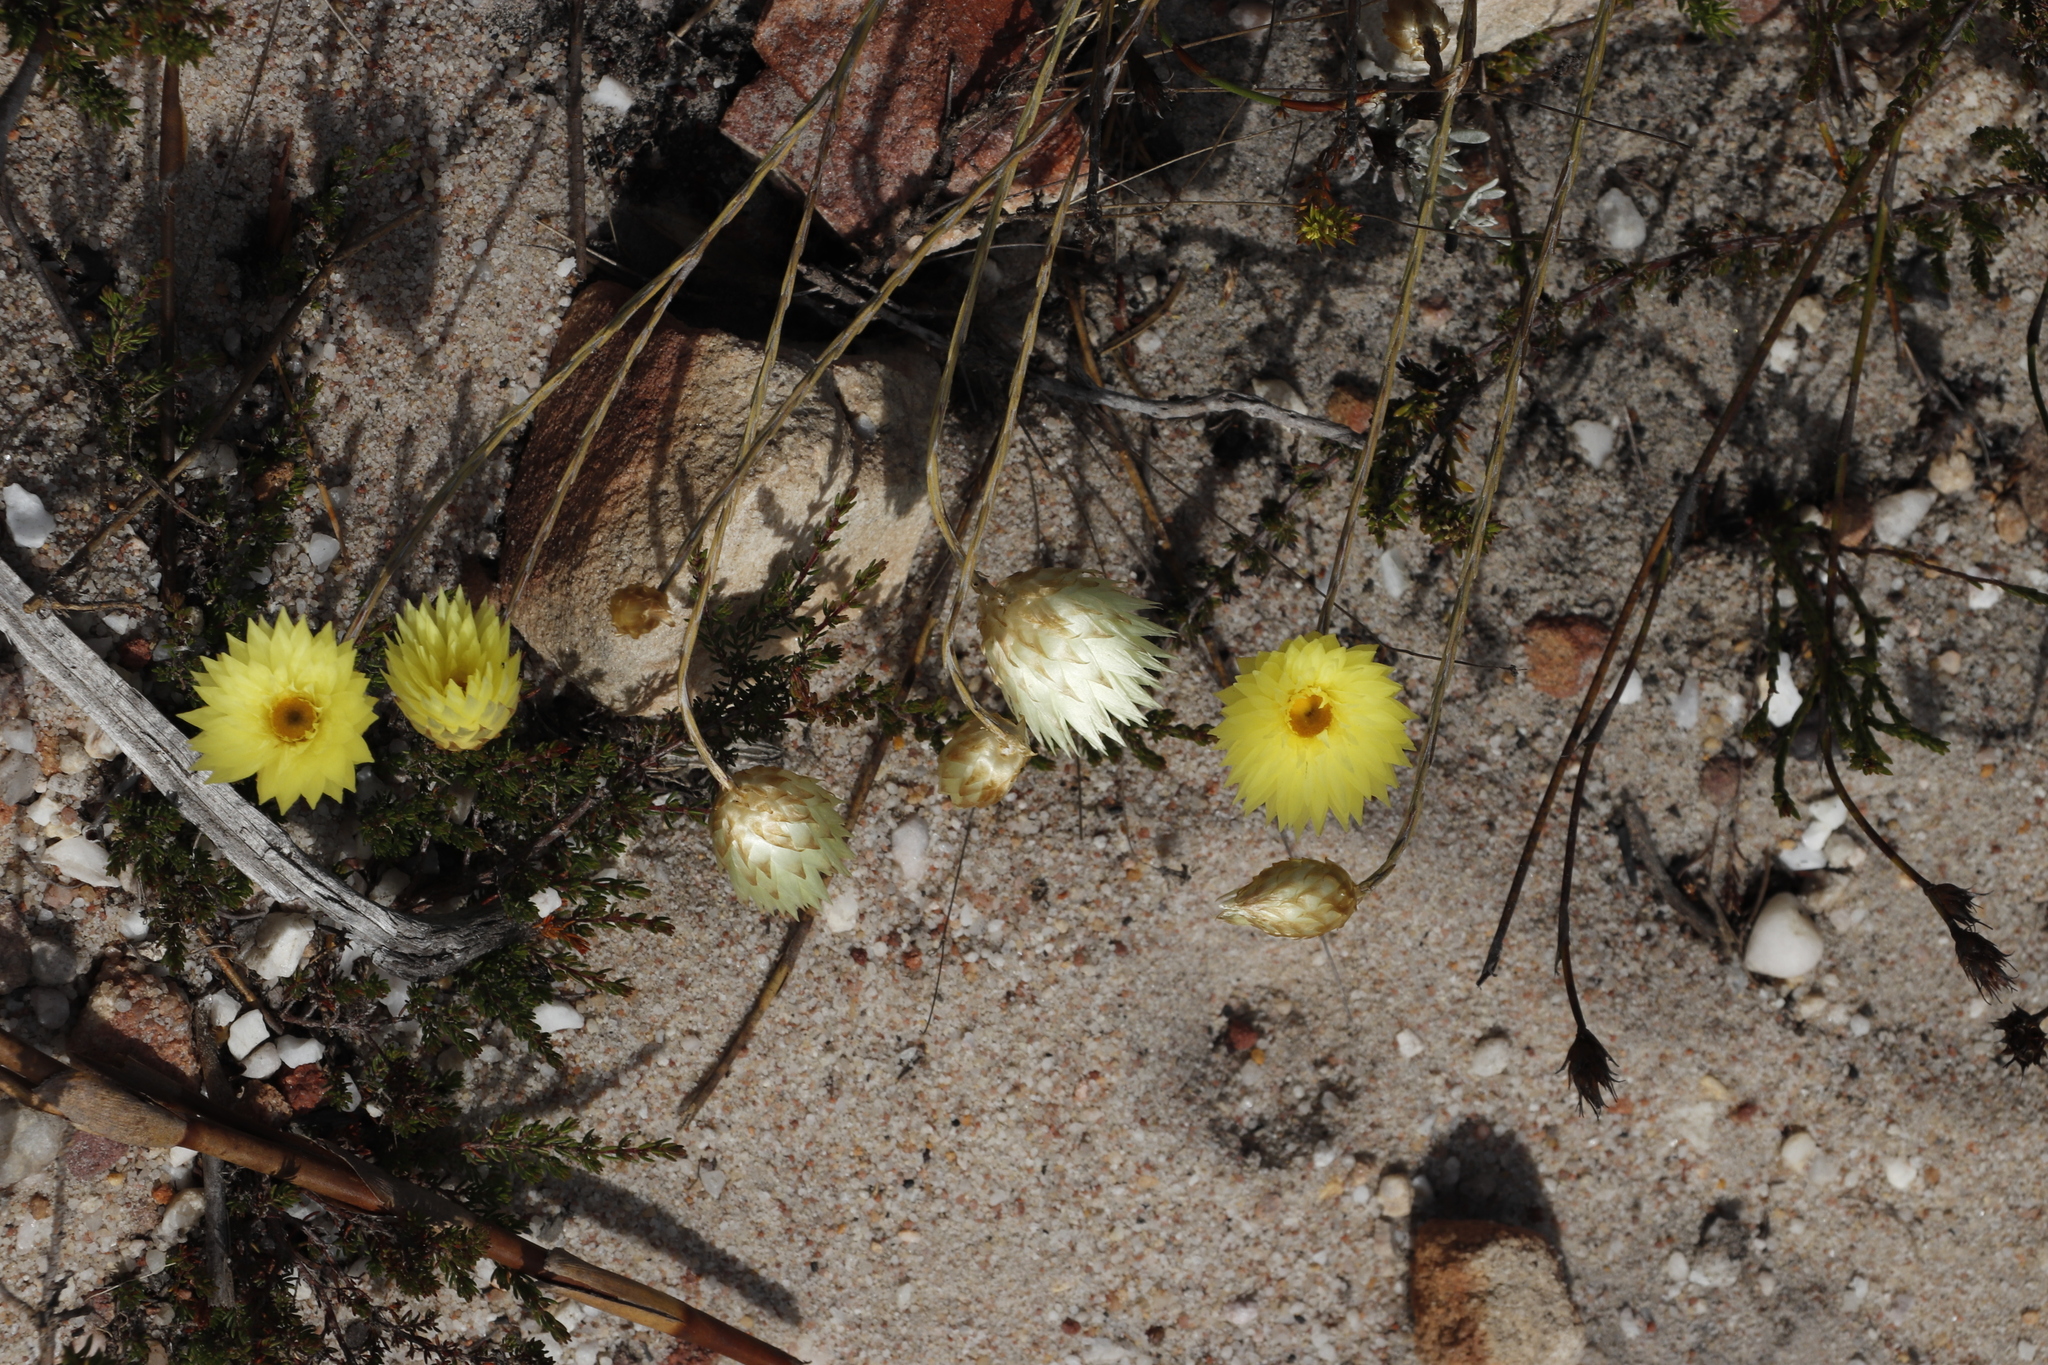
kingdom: Plantae
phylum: Tracheophyta
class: Magnoliopsida
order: Asterales
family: Asteraceae
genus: Edmondia
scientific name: Edmondia sesamoides
